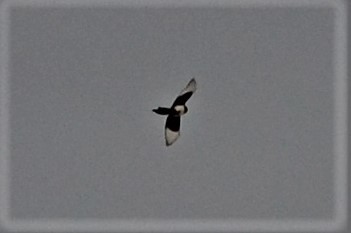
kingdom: Animalia
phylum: Chordata
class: Aves
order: Passeriformes
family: Corvidae
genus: Pica
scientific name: Pica pica
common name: Eurasian magpie
